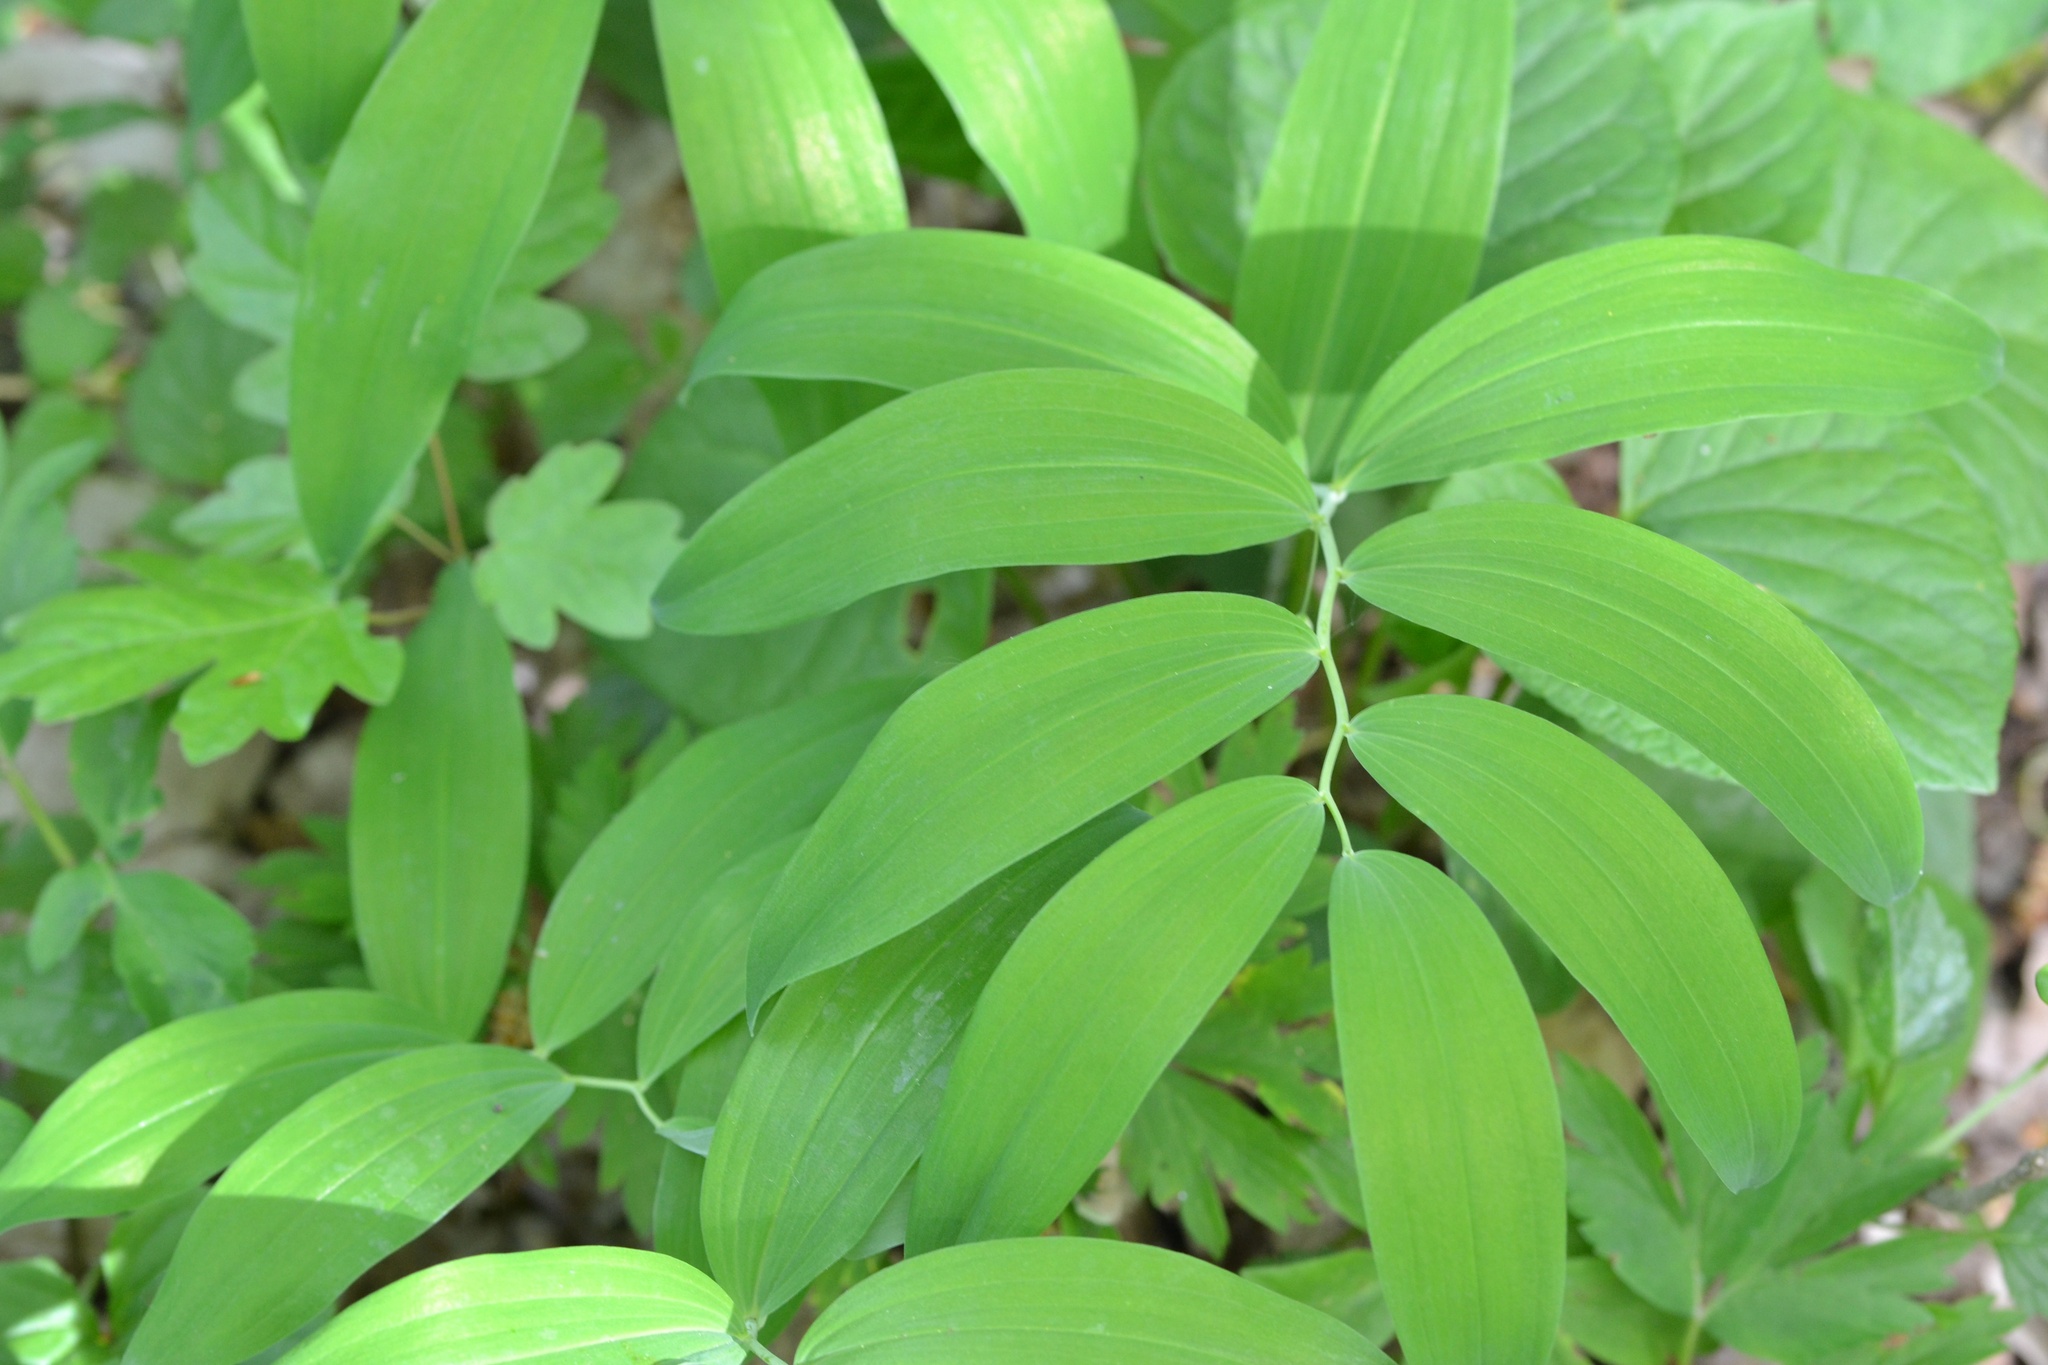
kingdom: Plantae
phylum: Tracheophyta
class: Liliopsida
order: Asparagales
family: Asparagaceae
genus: Polygonatum
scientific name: Polygonatum multiflorum
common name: Solomon's-seal
